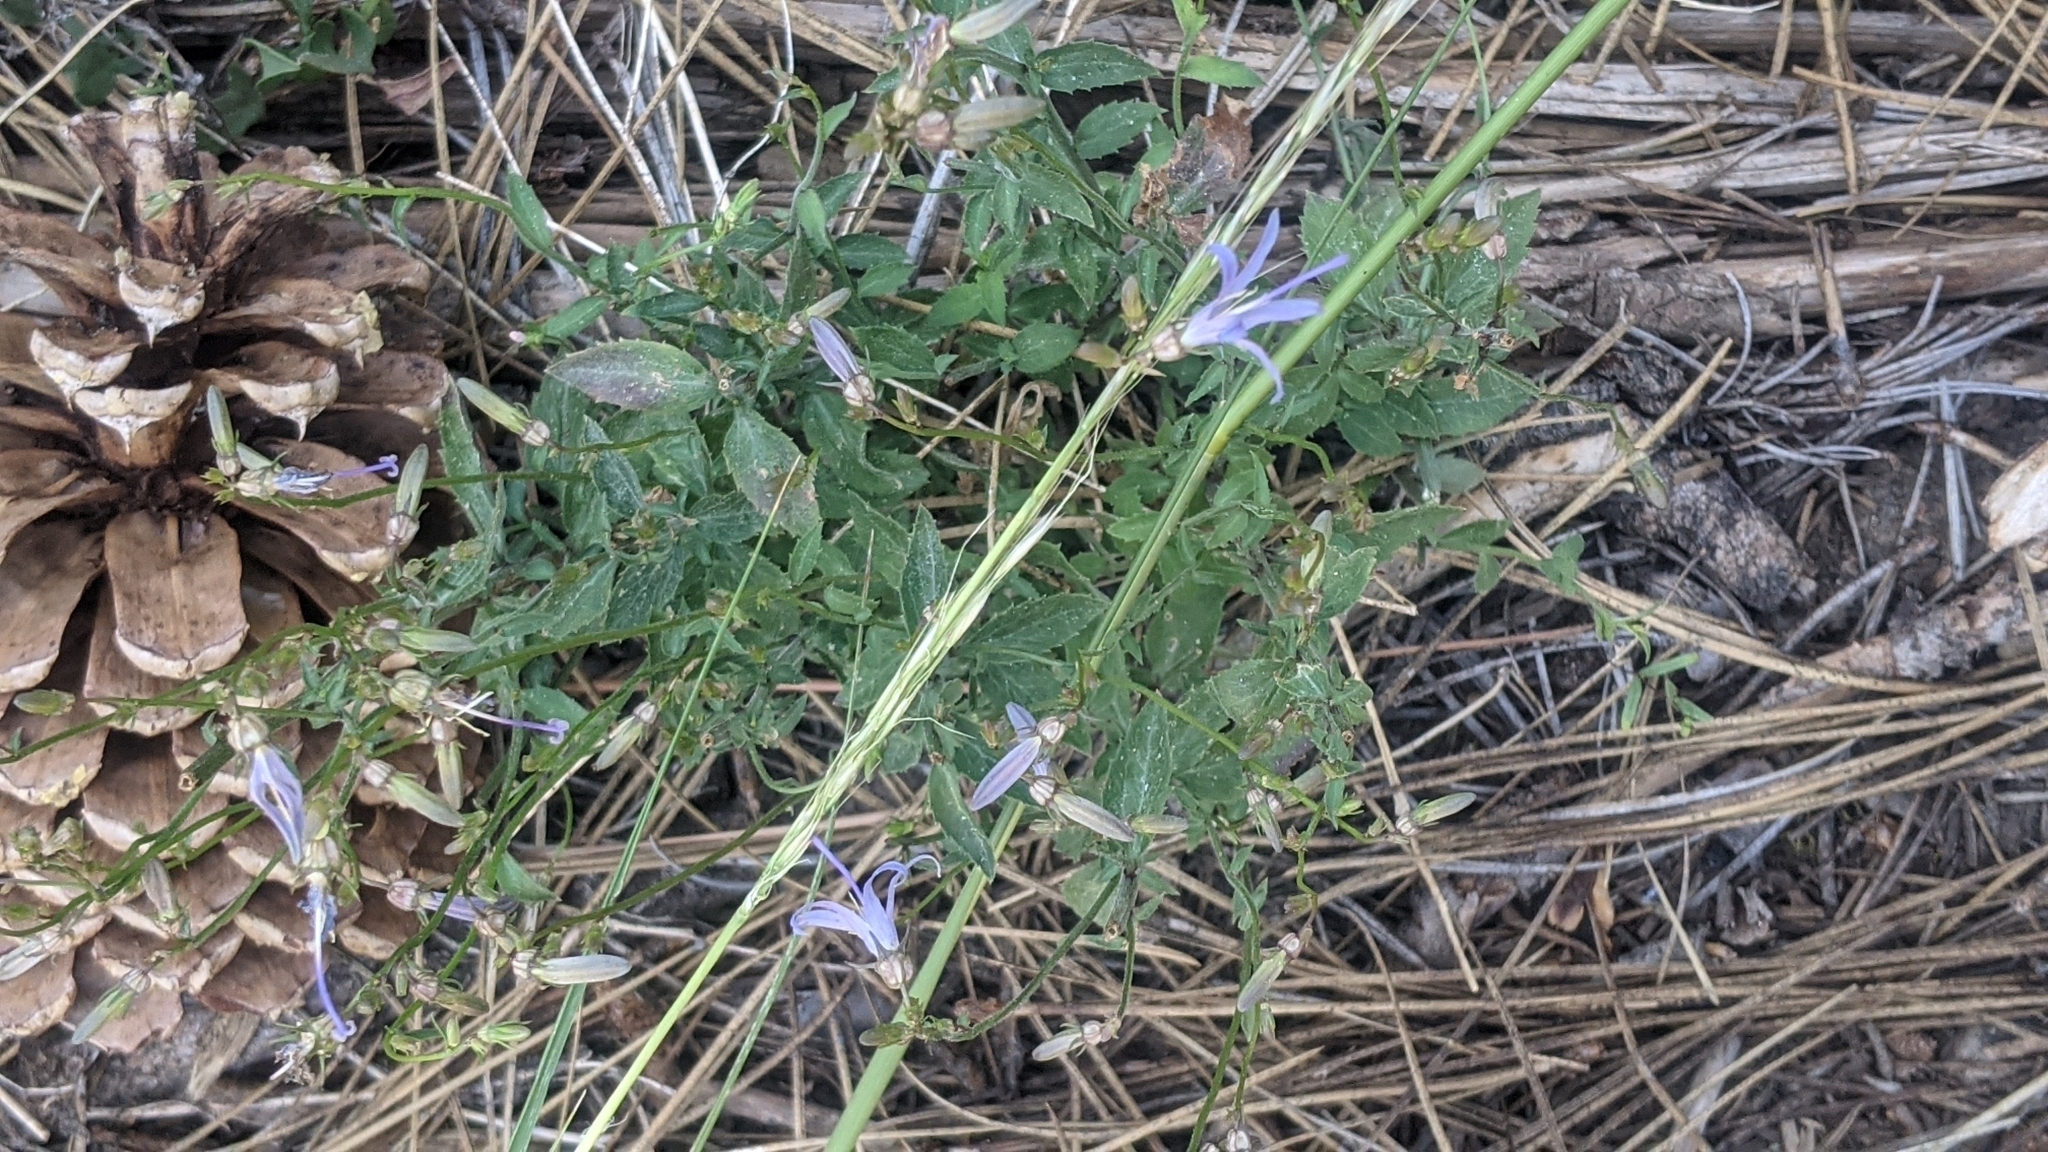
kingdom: Plantae
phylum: Tracheophyta
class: Magnoliopsida
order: Asterales
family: Campanulaceae
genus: Smithiastrum
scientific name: Smithiastrum prenanthoides
